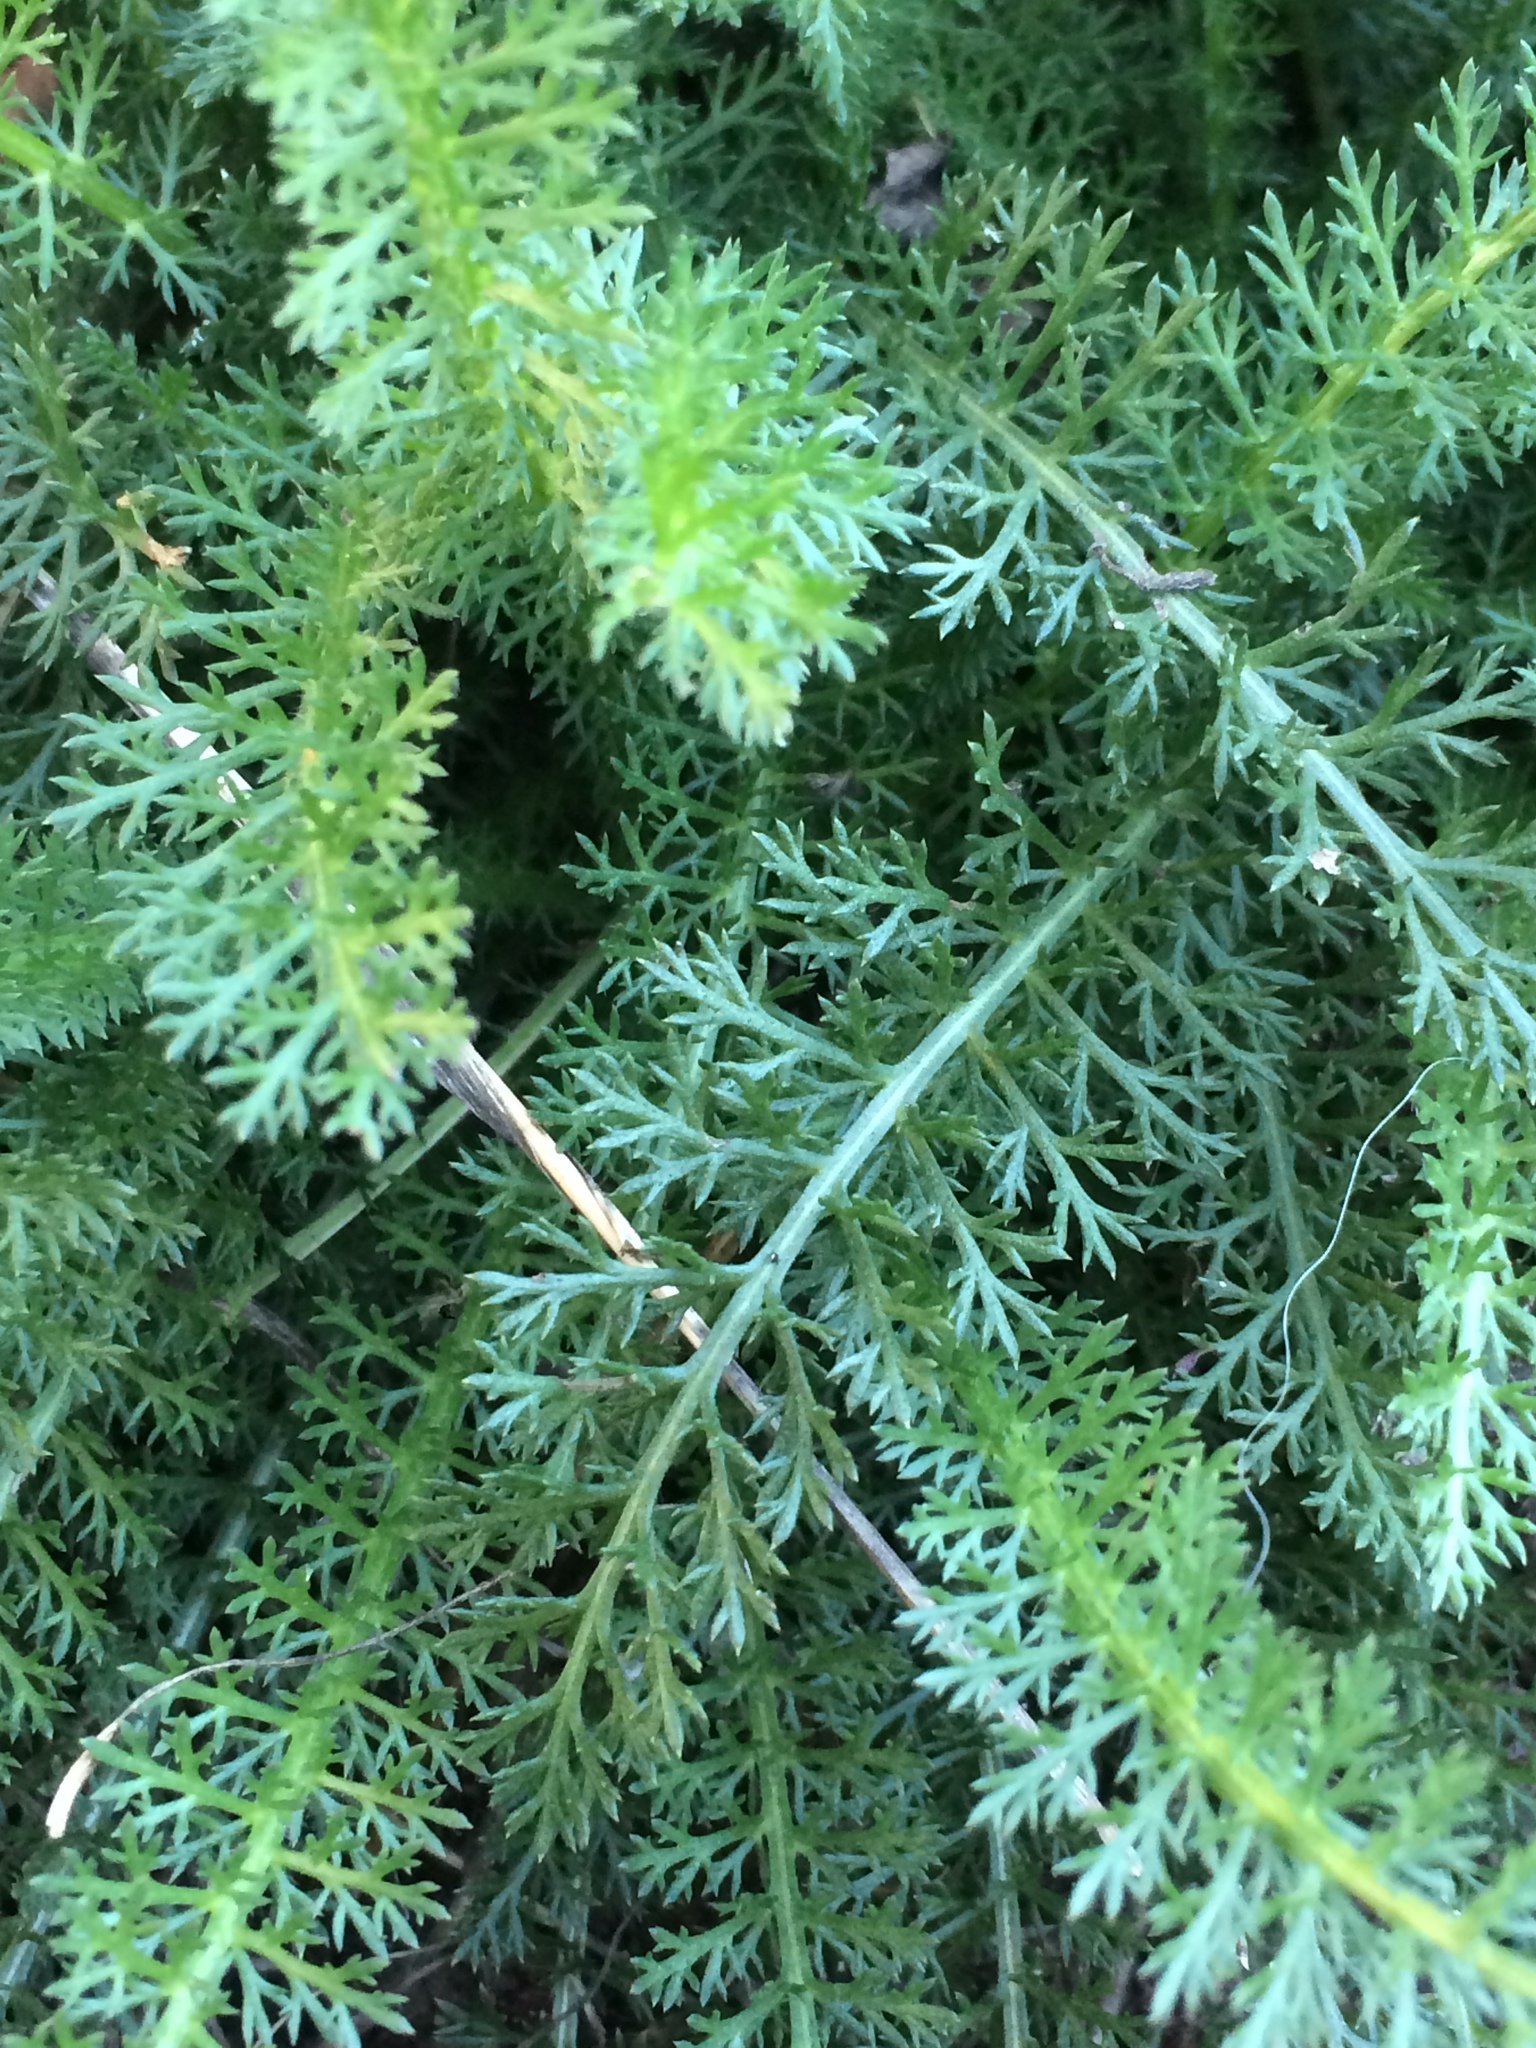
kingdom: Plantae
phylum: Tracheophyta
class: Magnoliopsida
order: Asterales
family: Asteraceae
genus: Achillea
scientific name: Achillea millefolium
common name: Yarrow
